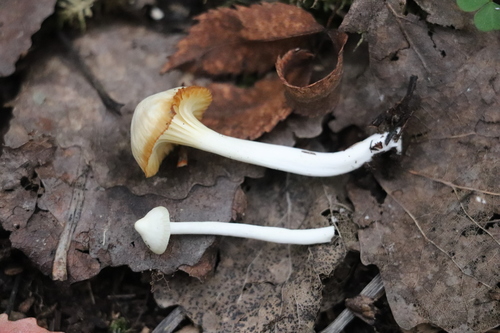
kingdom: Fungi
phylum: Basidiomycota
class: Agaricomycetes
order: Agaricales
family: Hygrophoraceae
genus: Cuphophyllus
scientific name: Cuphophyllus virgineus
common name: Snowy waxcap
